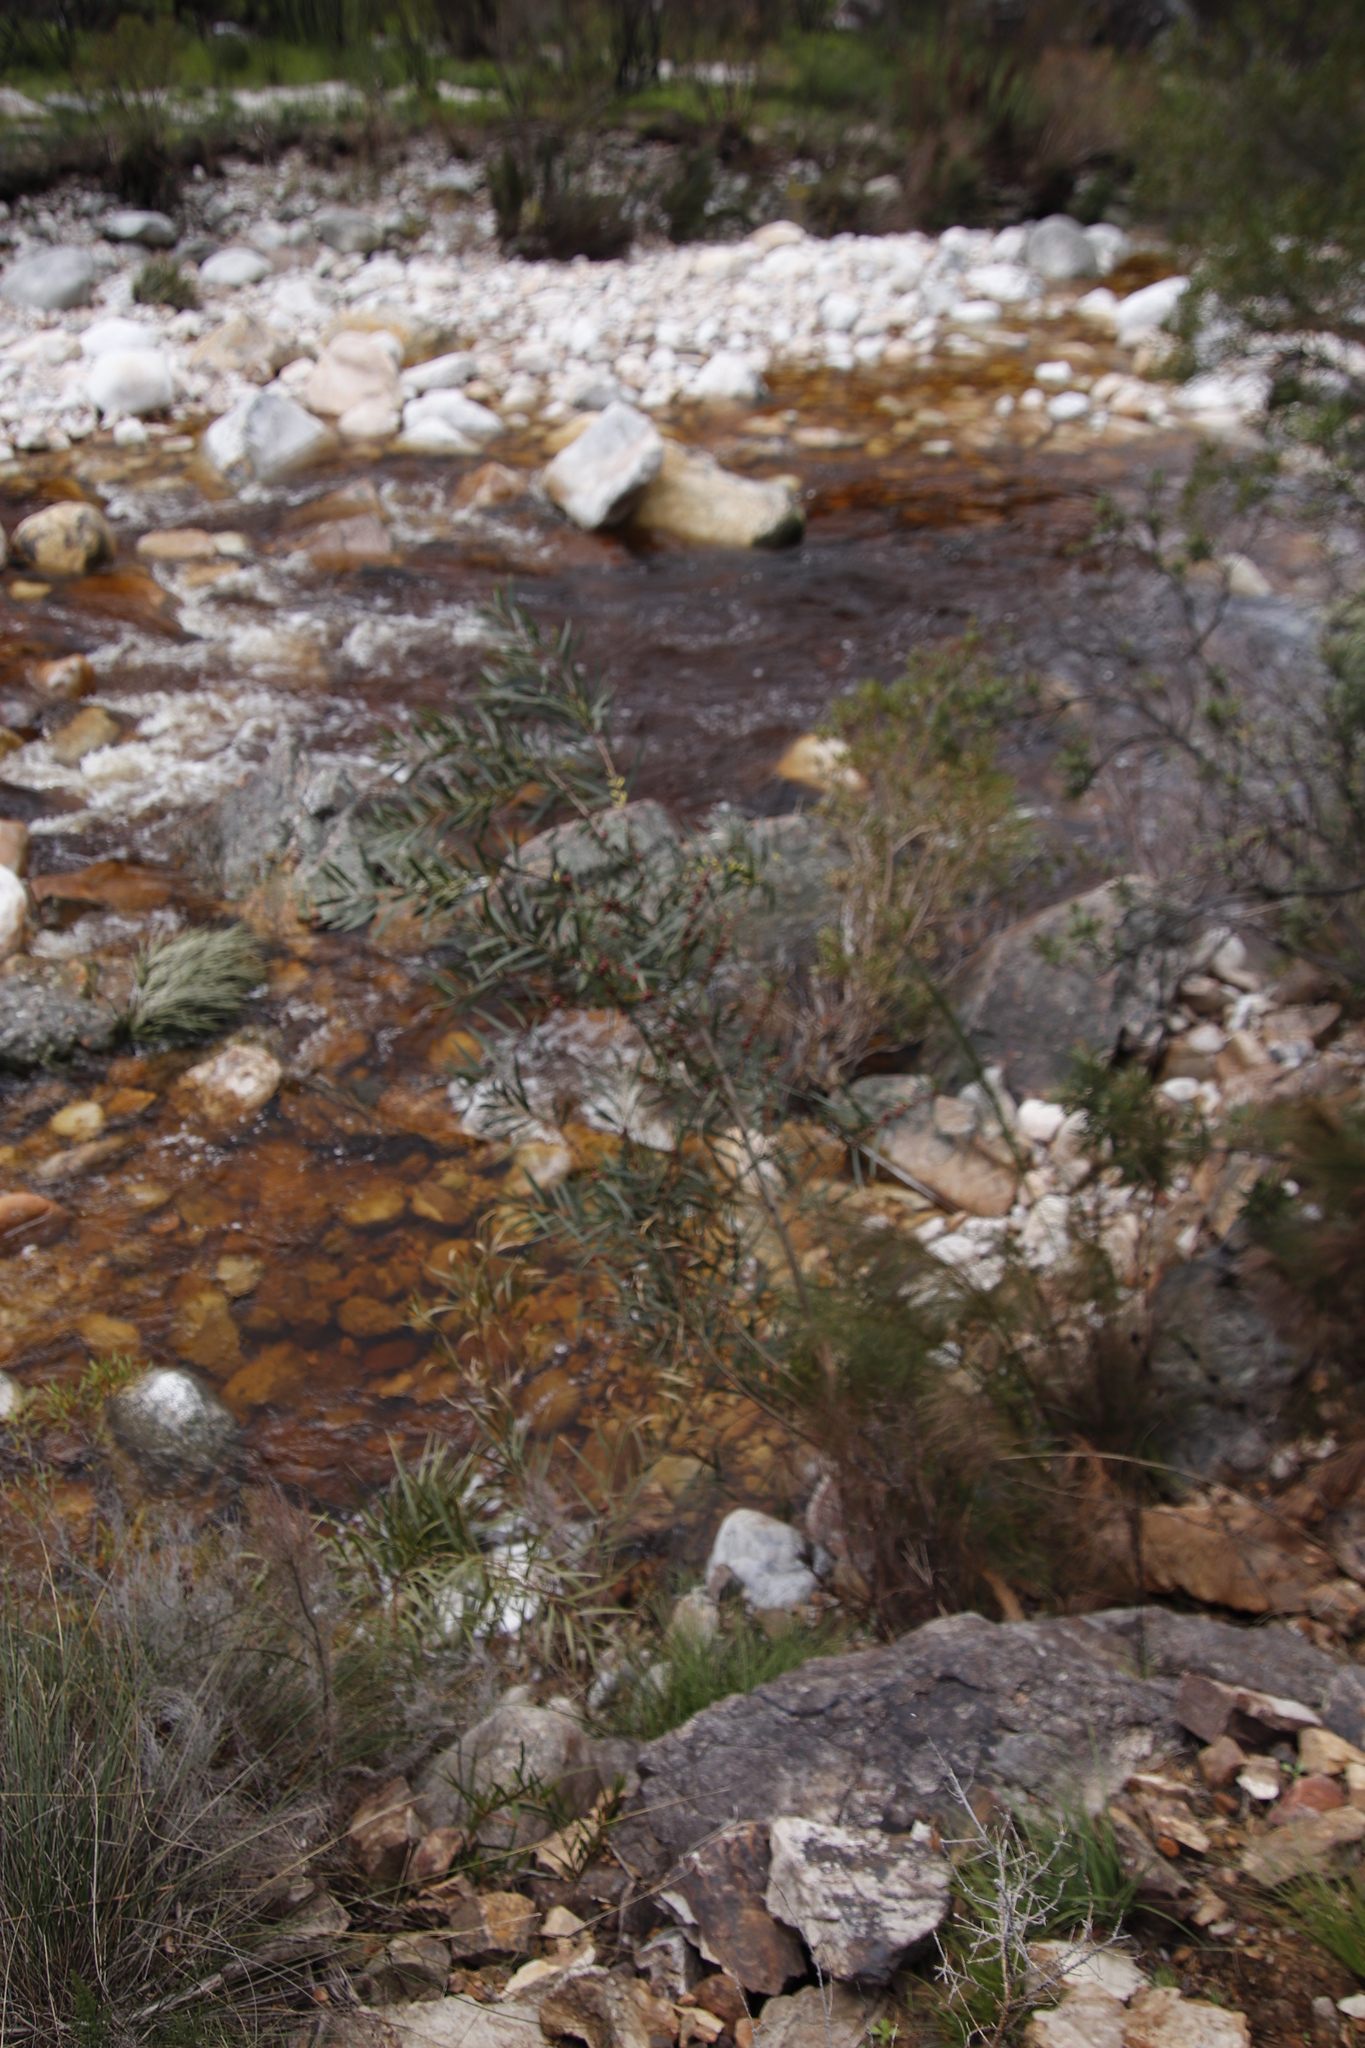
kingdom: Plantae
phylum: Tracheophyta
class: Magnoliopsida
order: Fabales
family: Fabaceae
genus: Acacia
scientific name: Acacia longifolia
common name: Sydney golden wattle
